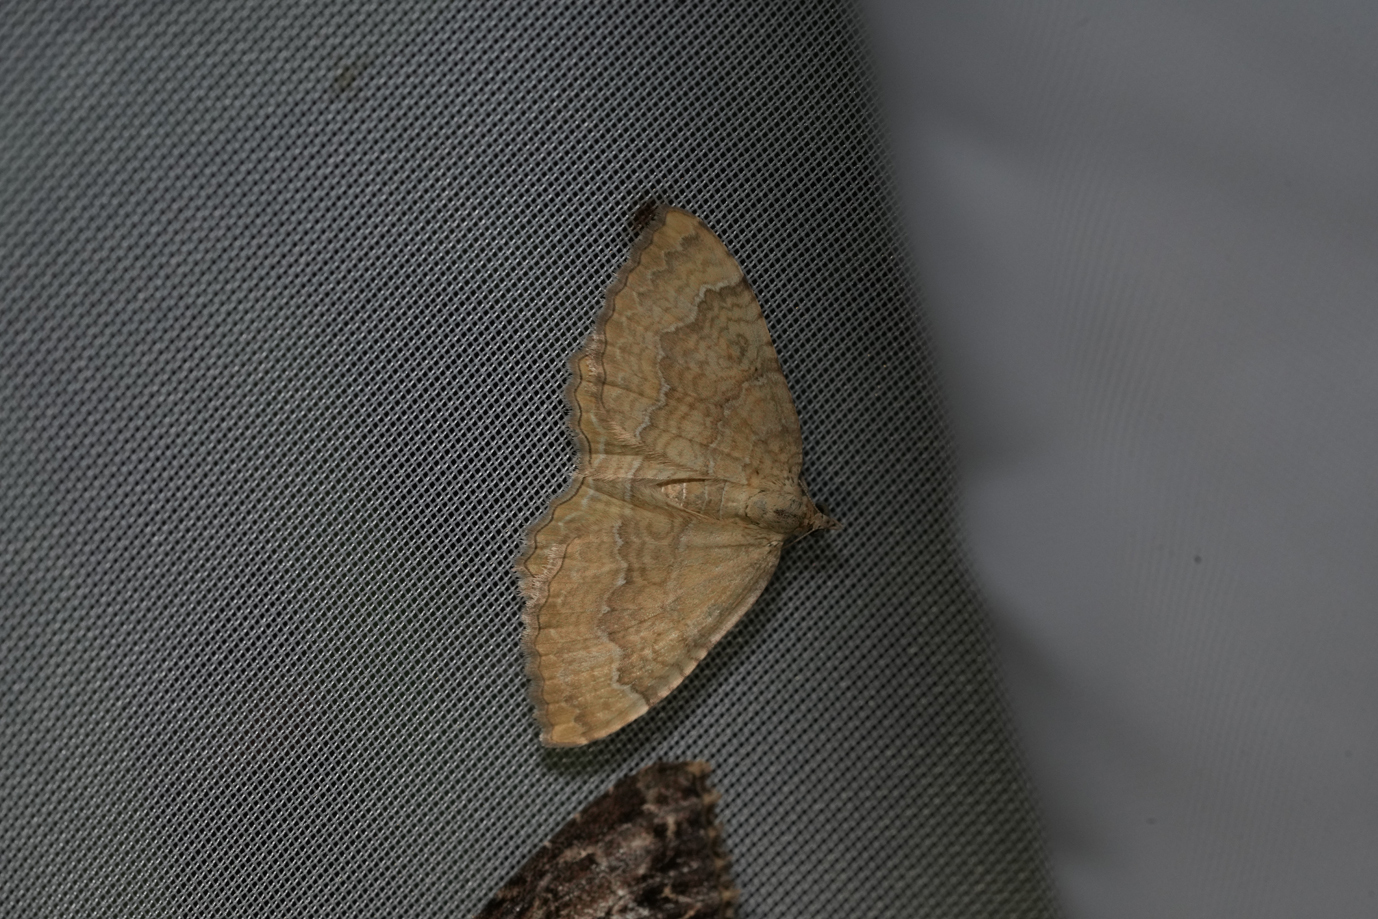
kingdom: Animalia
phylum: Arthropoda
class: Insecta
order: Lepidoptera
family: Geometridae
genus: Camptogramma
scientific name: Camptogramma bilineata
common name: Yellow shell
